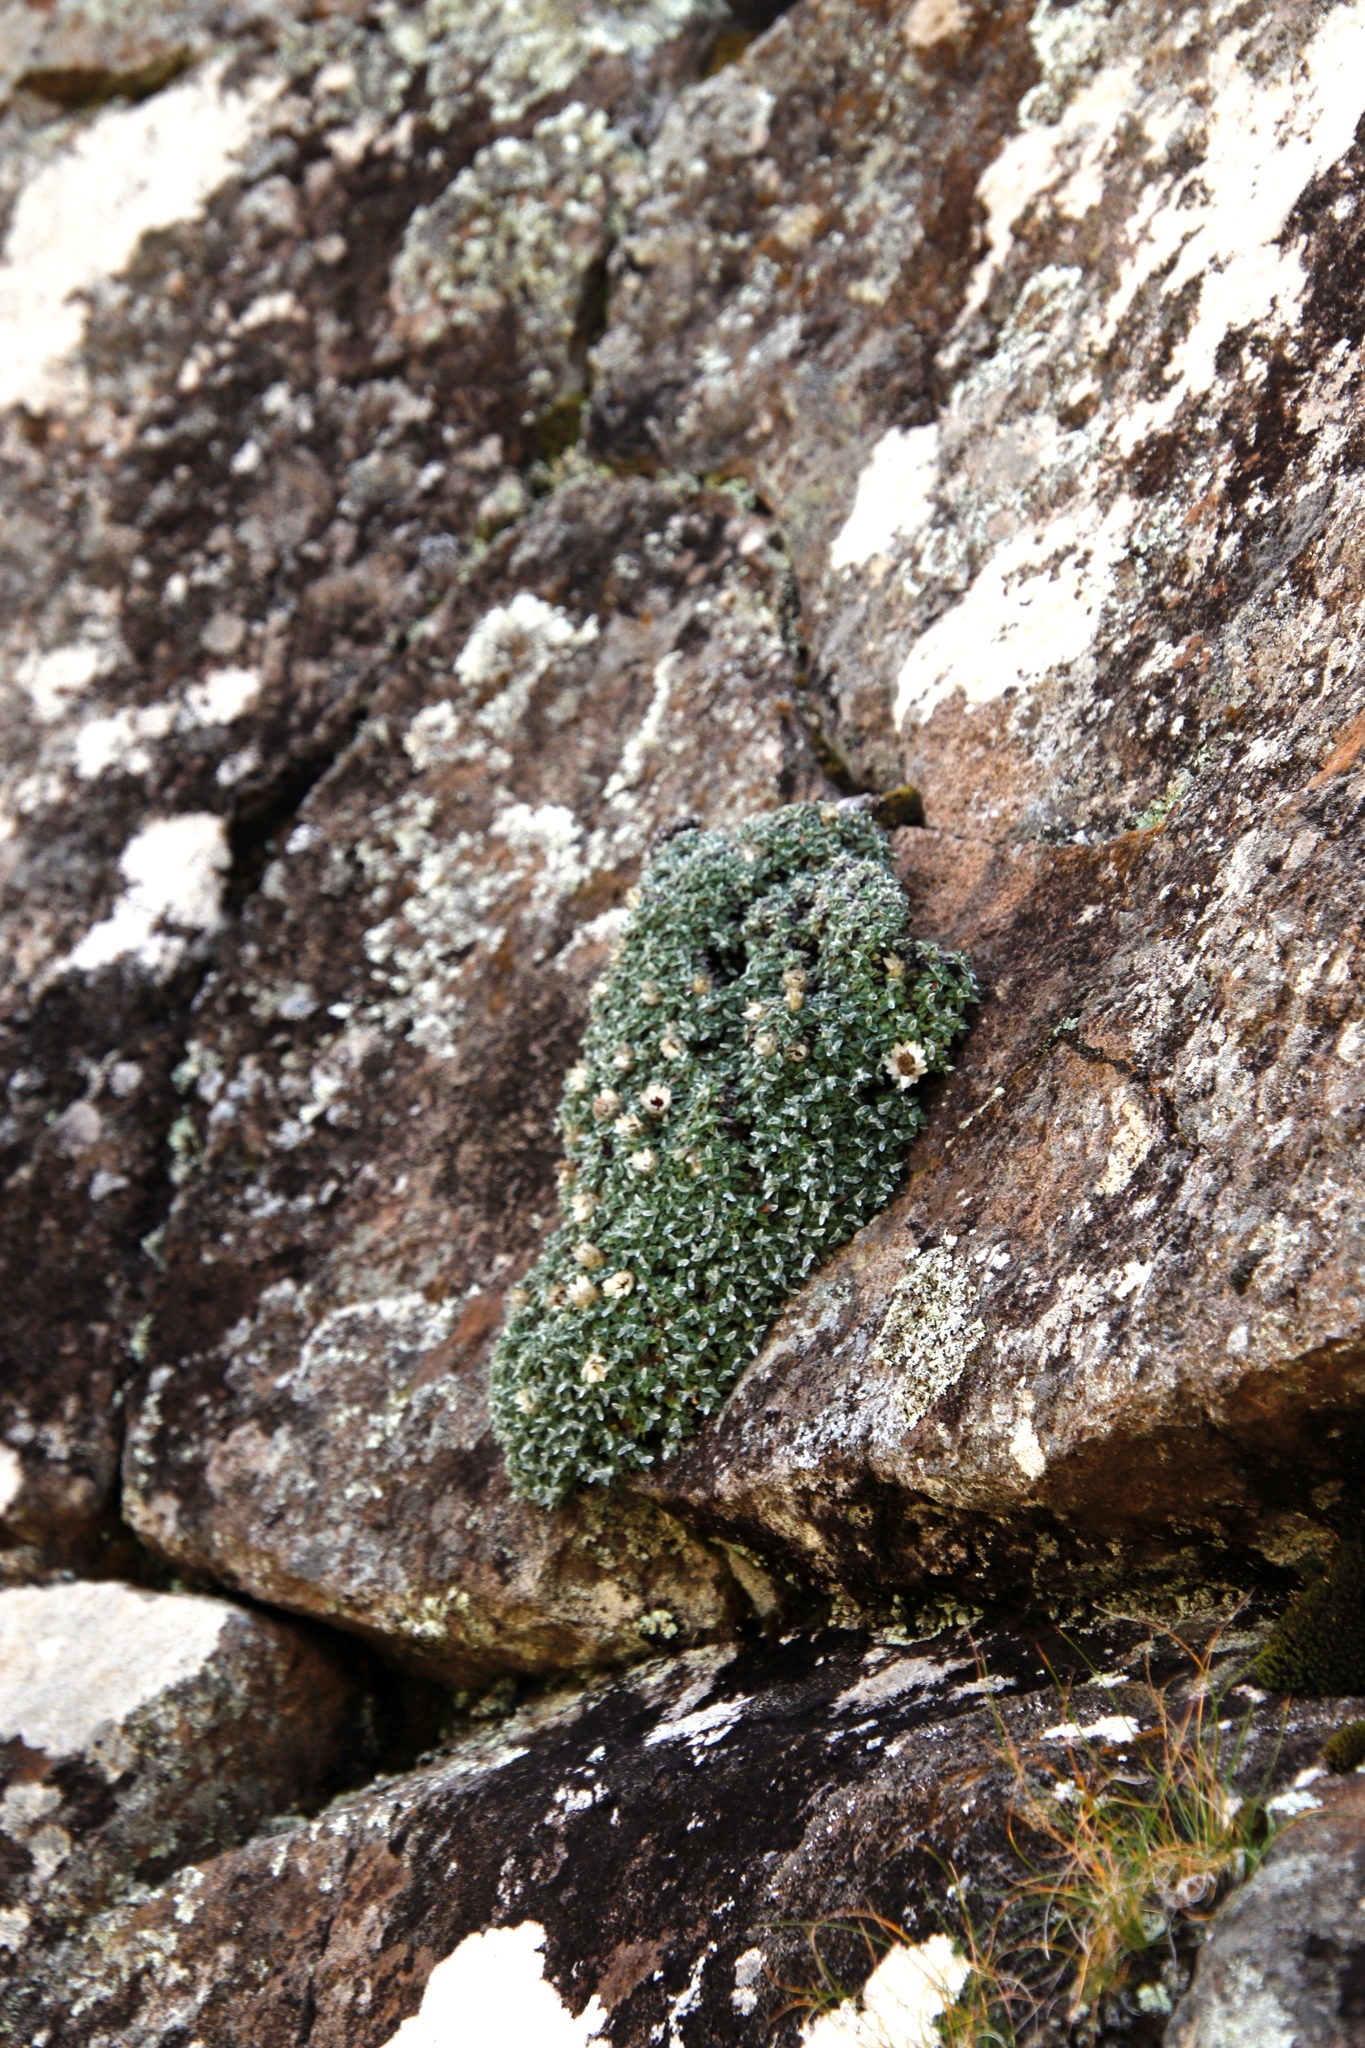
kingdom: Plantae
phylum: Tracheophyta
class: Magnoliopsida
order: Asterales
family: Asteraceae
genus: Helichrysum
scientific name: Helichrysum sessilioides
